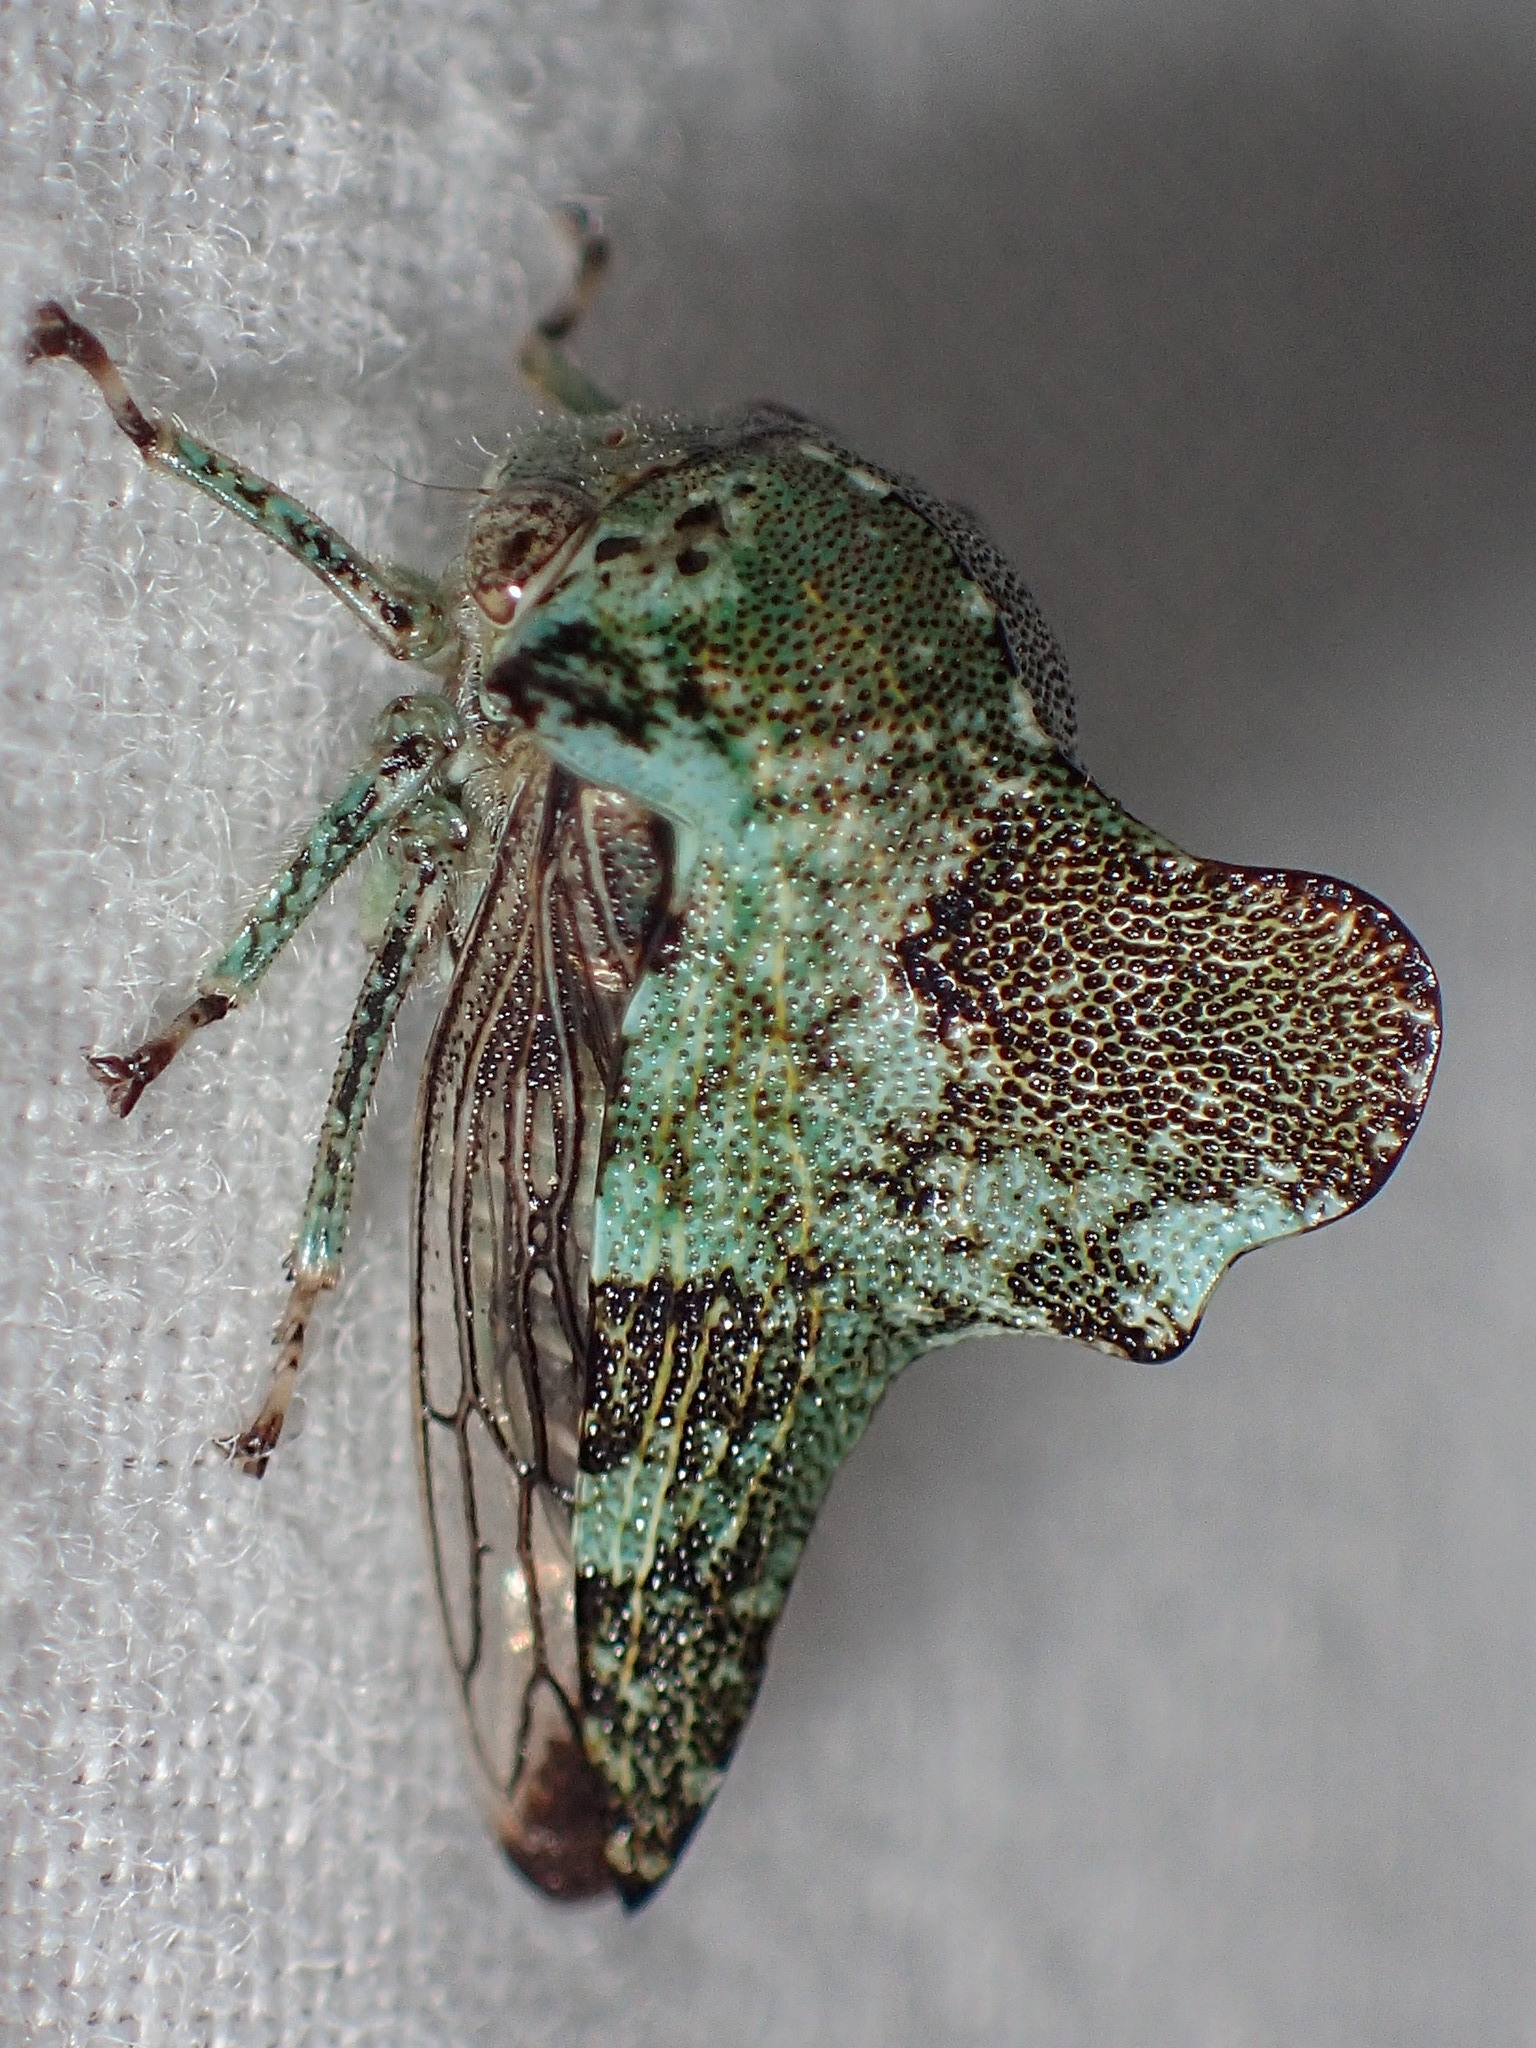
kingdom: Animalia
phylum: Arthropoda
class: Insecta
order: Hemiptera
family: Membracidae
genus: Telamona
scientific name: Telamona concava
